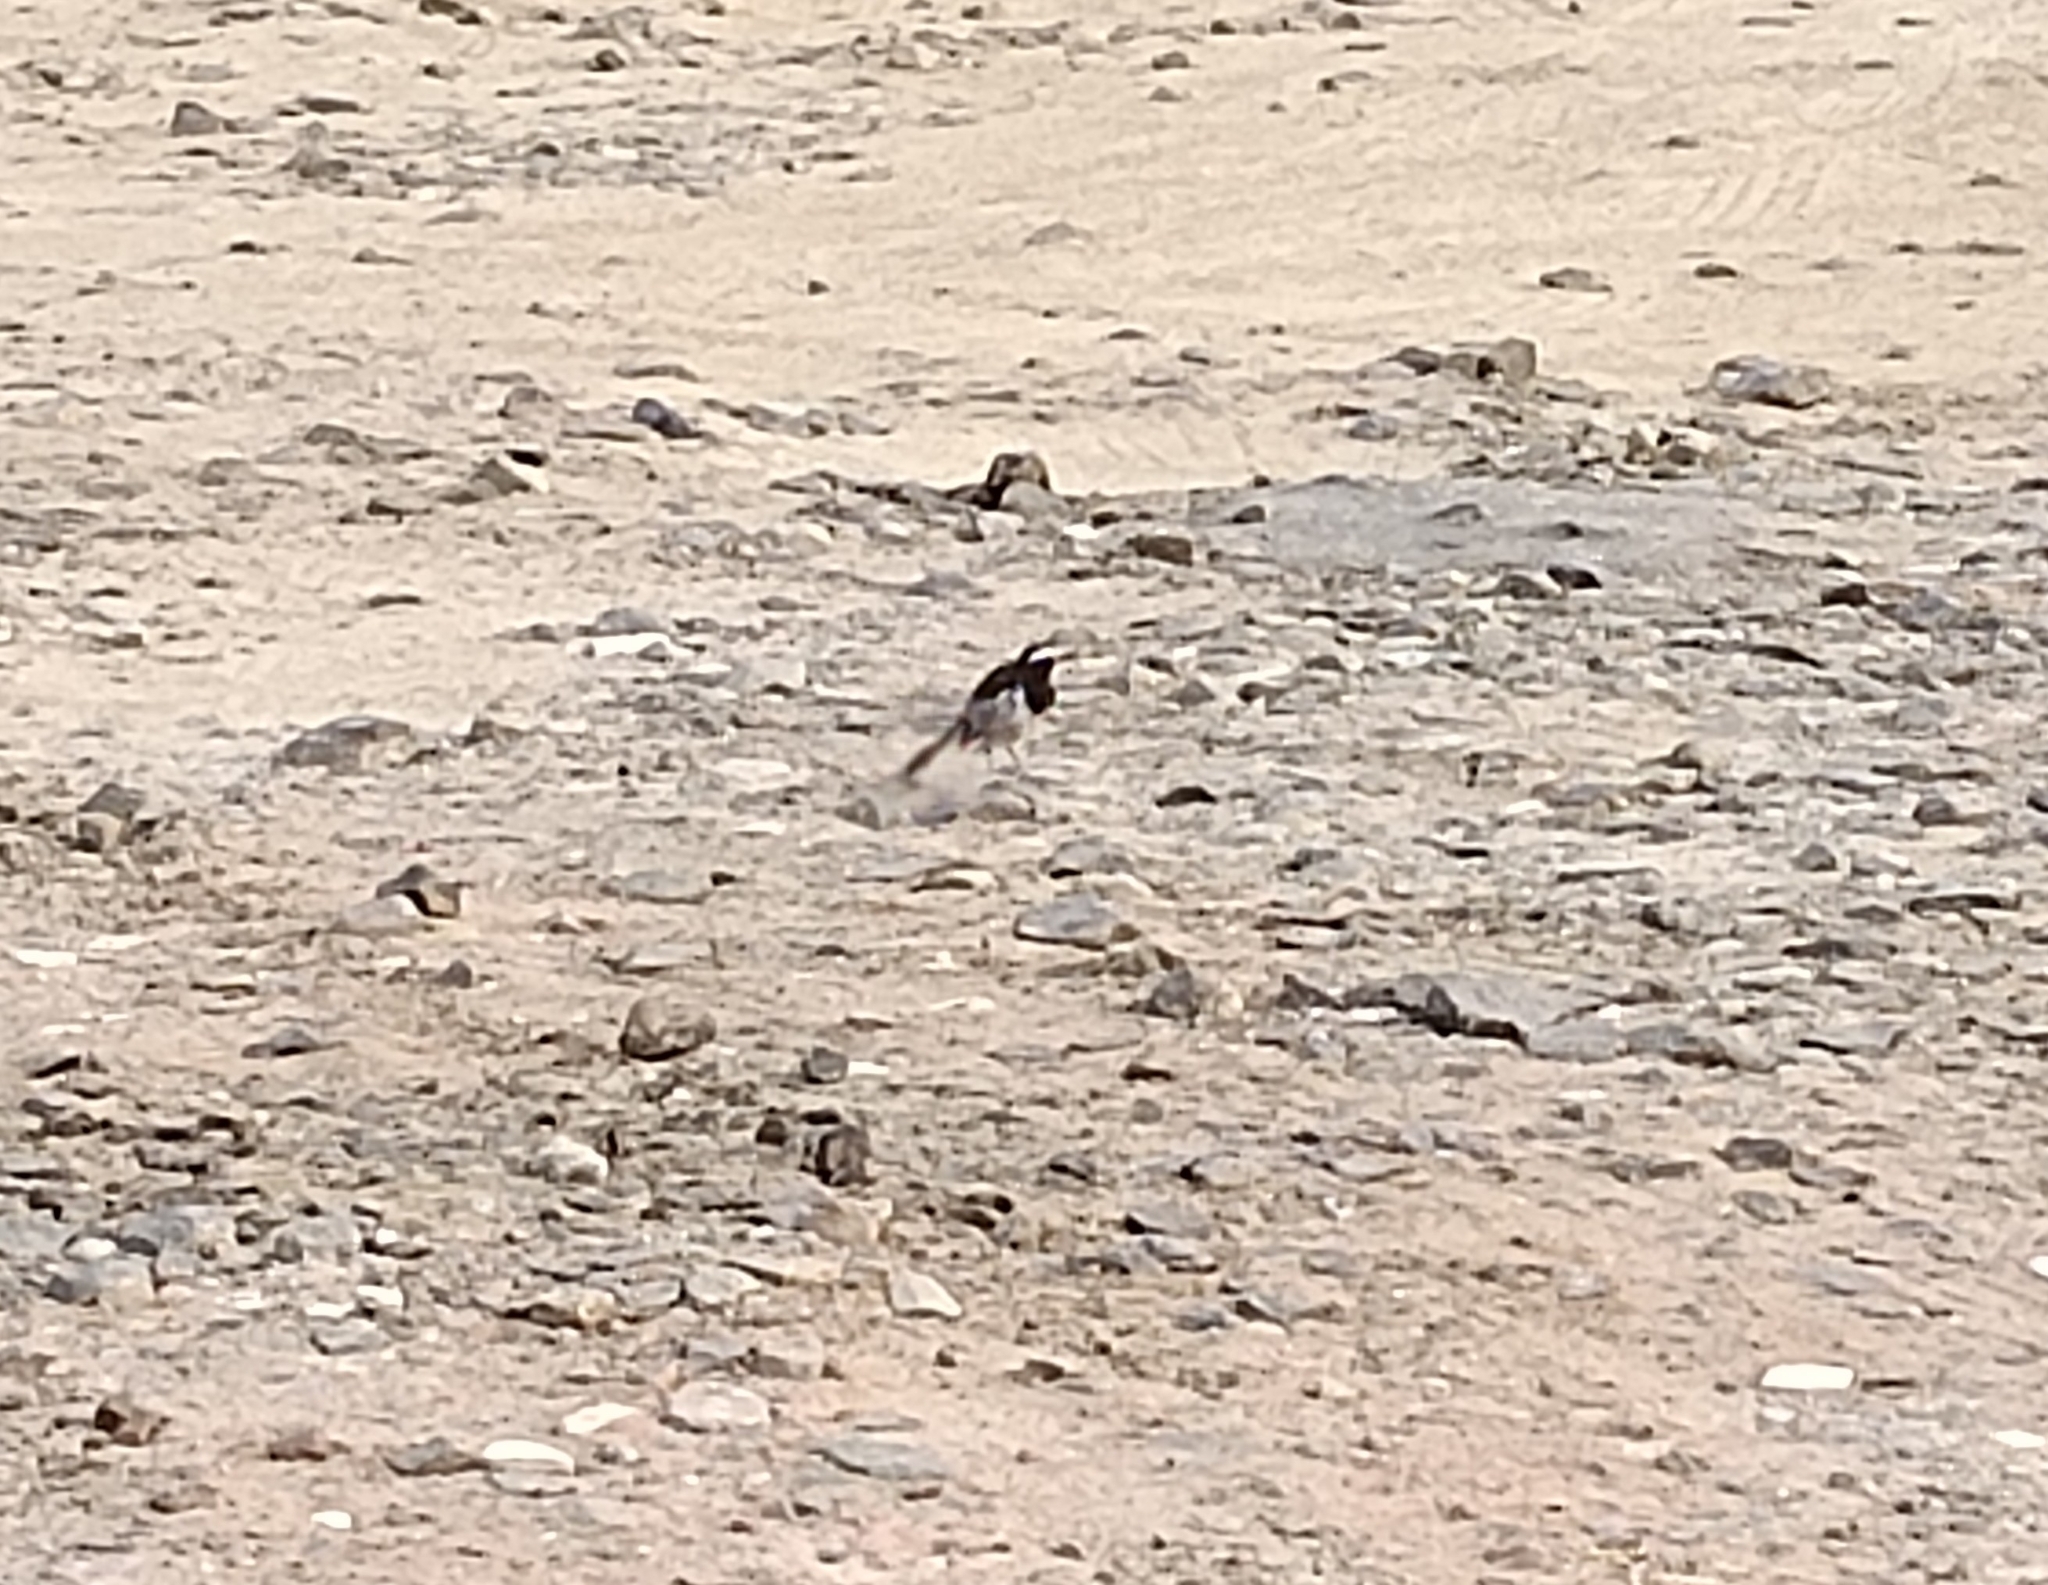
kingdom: Animalia
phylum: Chordata
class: Aves
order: Passeriformes
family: Motacillidae
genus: Motacilla
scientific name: Motacilla maderaspatensis
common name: White-browed wagtail
